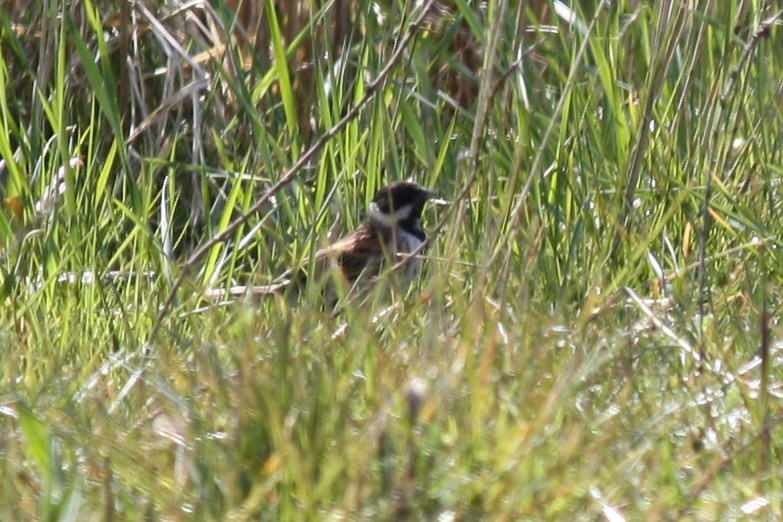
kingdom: Animalia
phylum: Chordata
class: Aves
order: Passeriformes
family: Emberizidae
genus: Emberiza
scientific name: Emberiza schoeniclus
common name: Reed bunting
